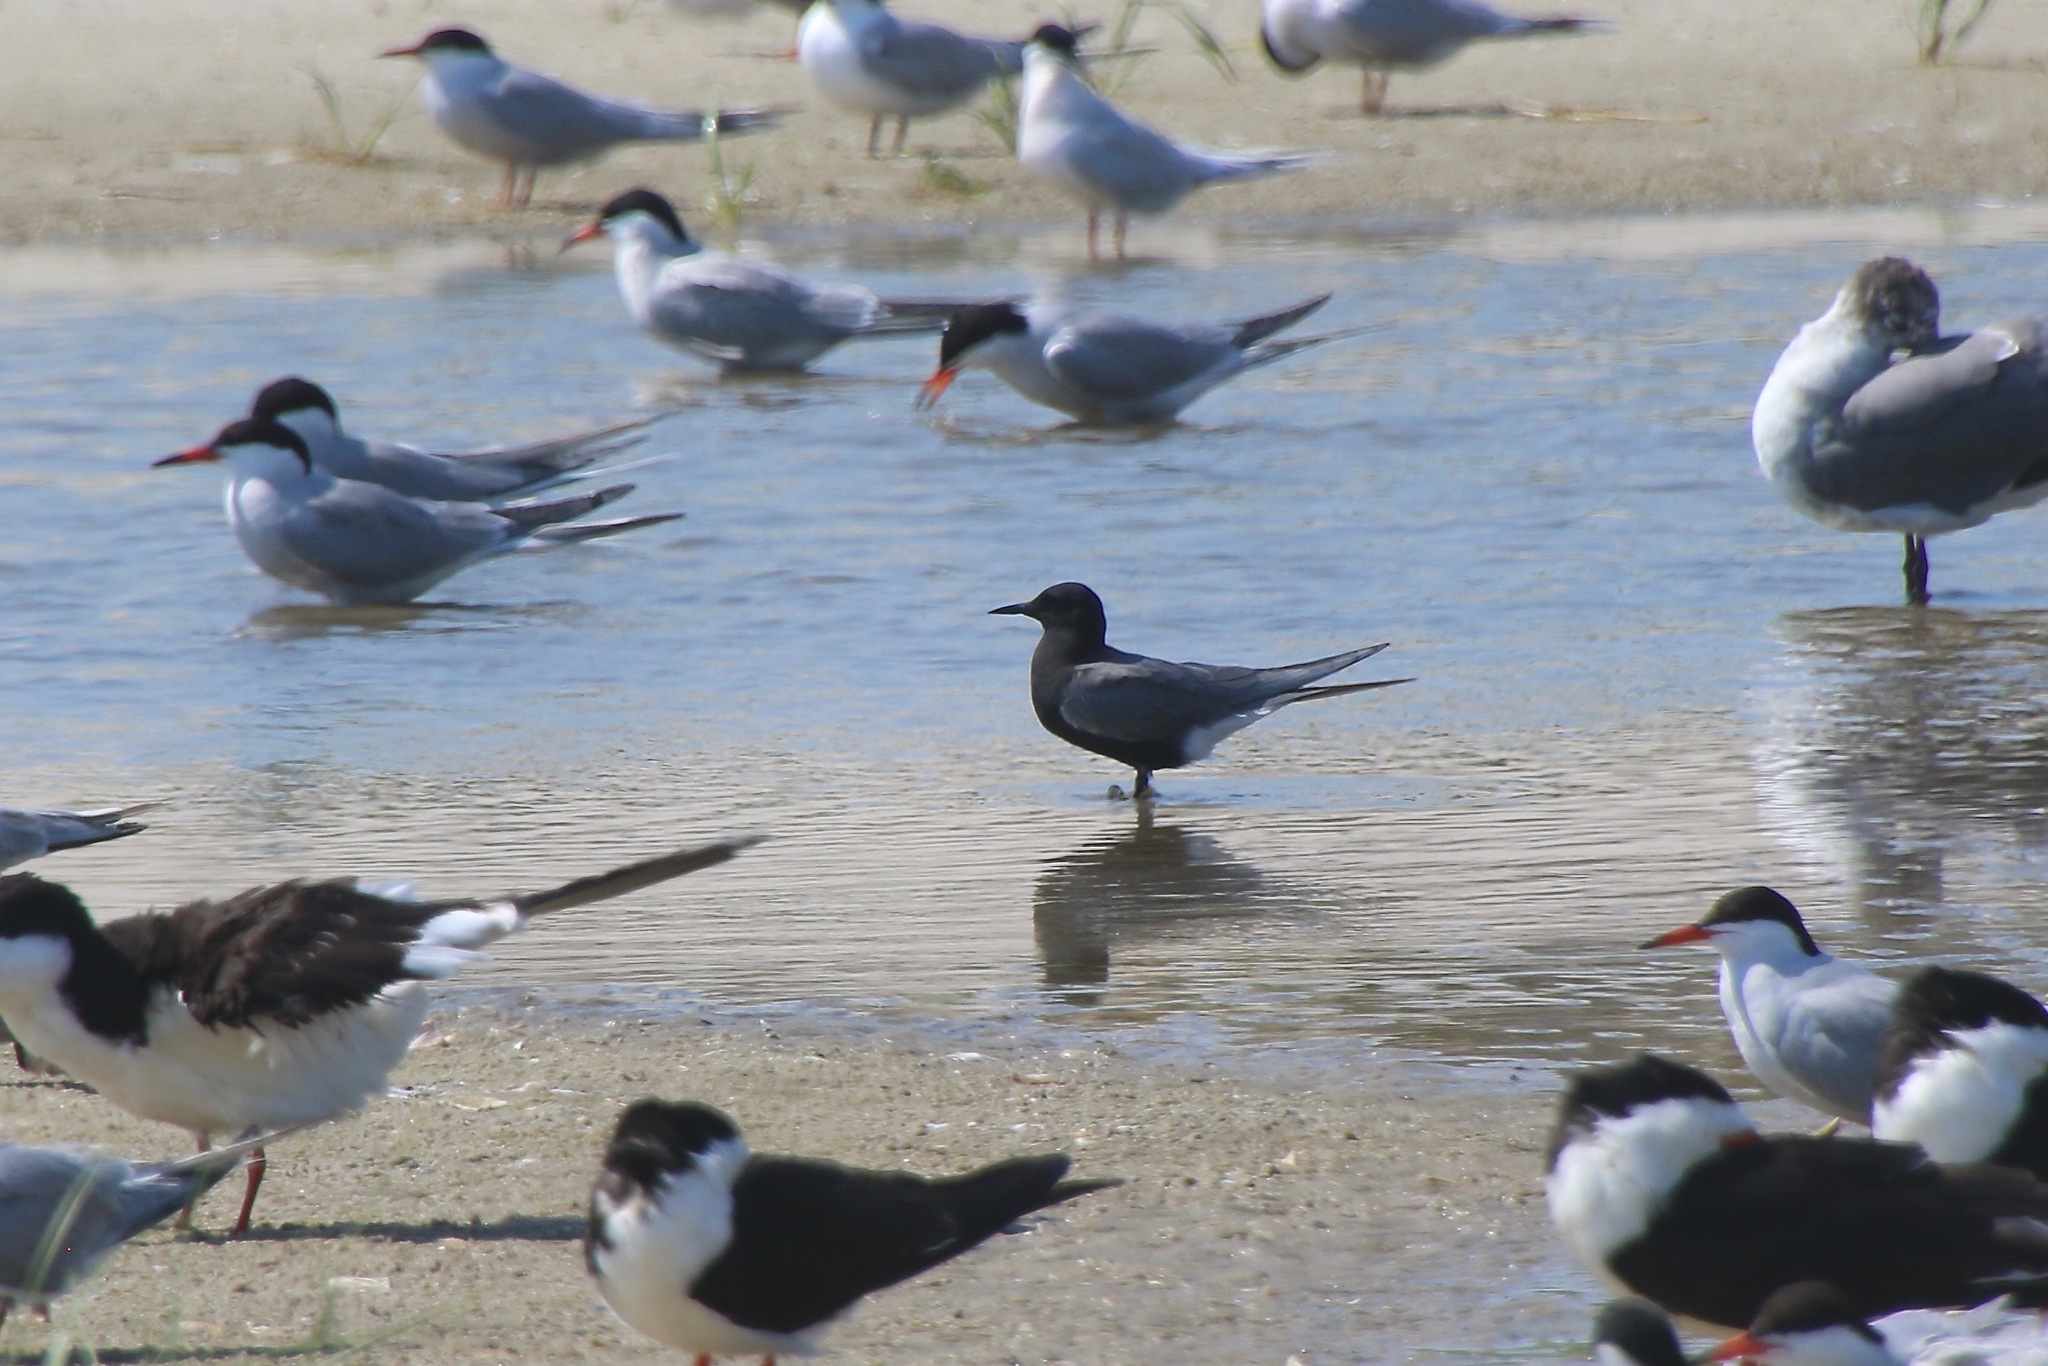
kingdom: Animalia
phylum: Chordata
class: Aves
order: Charadriiformes
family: Laridae
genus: Chlidonias
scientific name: Chlidonias niger
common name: Black tern
